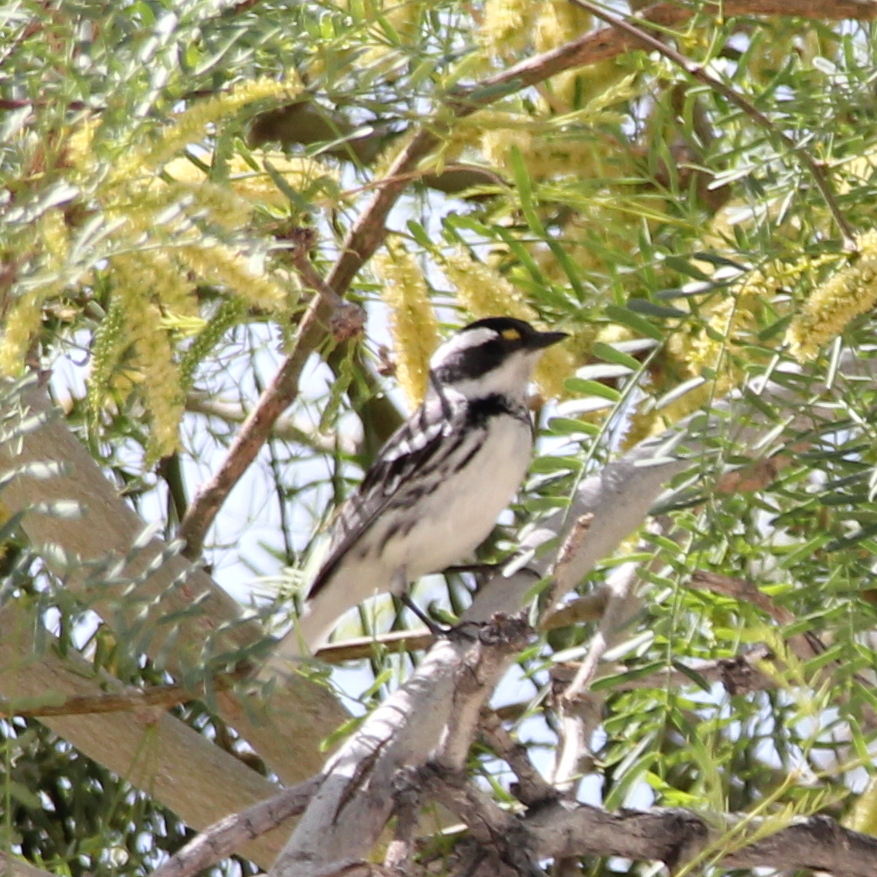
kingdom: Animalia
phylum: Chordata
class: Aves
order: Passeriformes
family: Parulidae
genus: Setophaga
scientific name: Setophaga nigrescens
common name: Black-throated gray warbler
